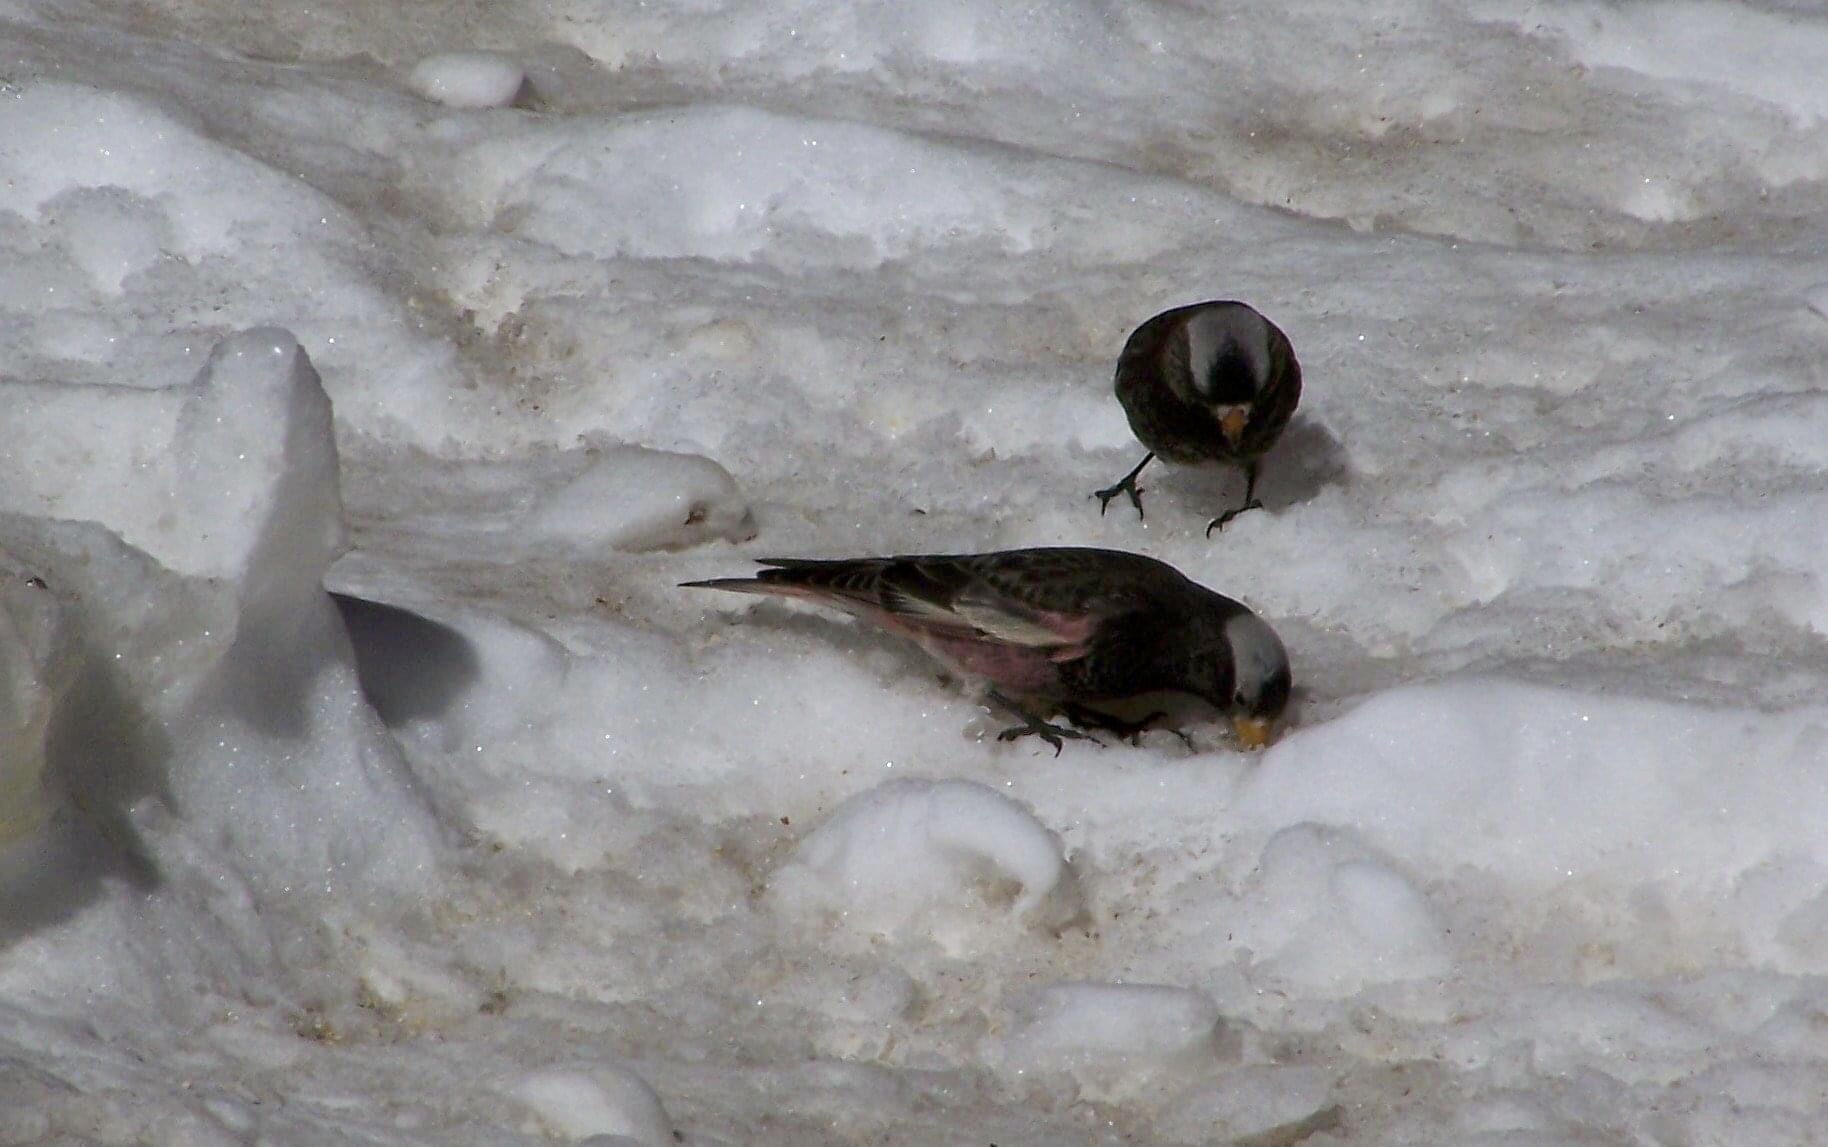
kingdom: Animalia
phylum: Chordata
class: Aves
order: Passeriformes
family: Fringillidae
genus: Leucosticte
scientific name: Leucosticte atrata
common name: Black rosy-finch
